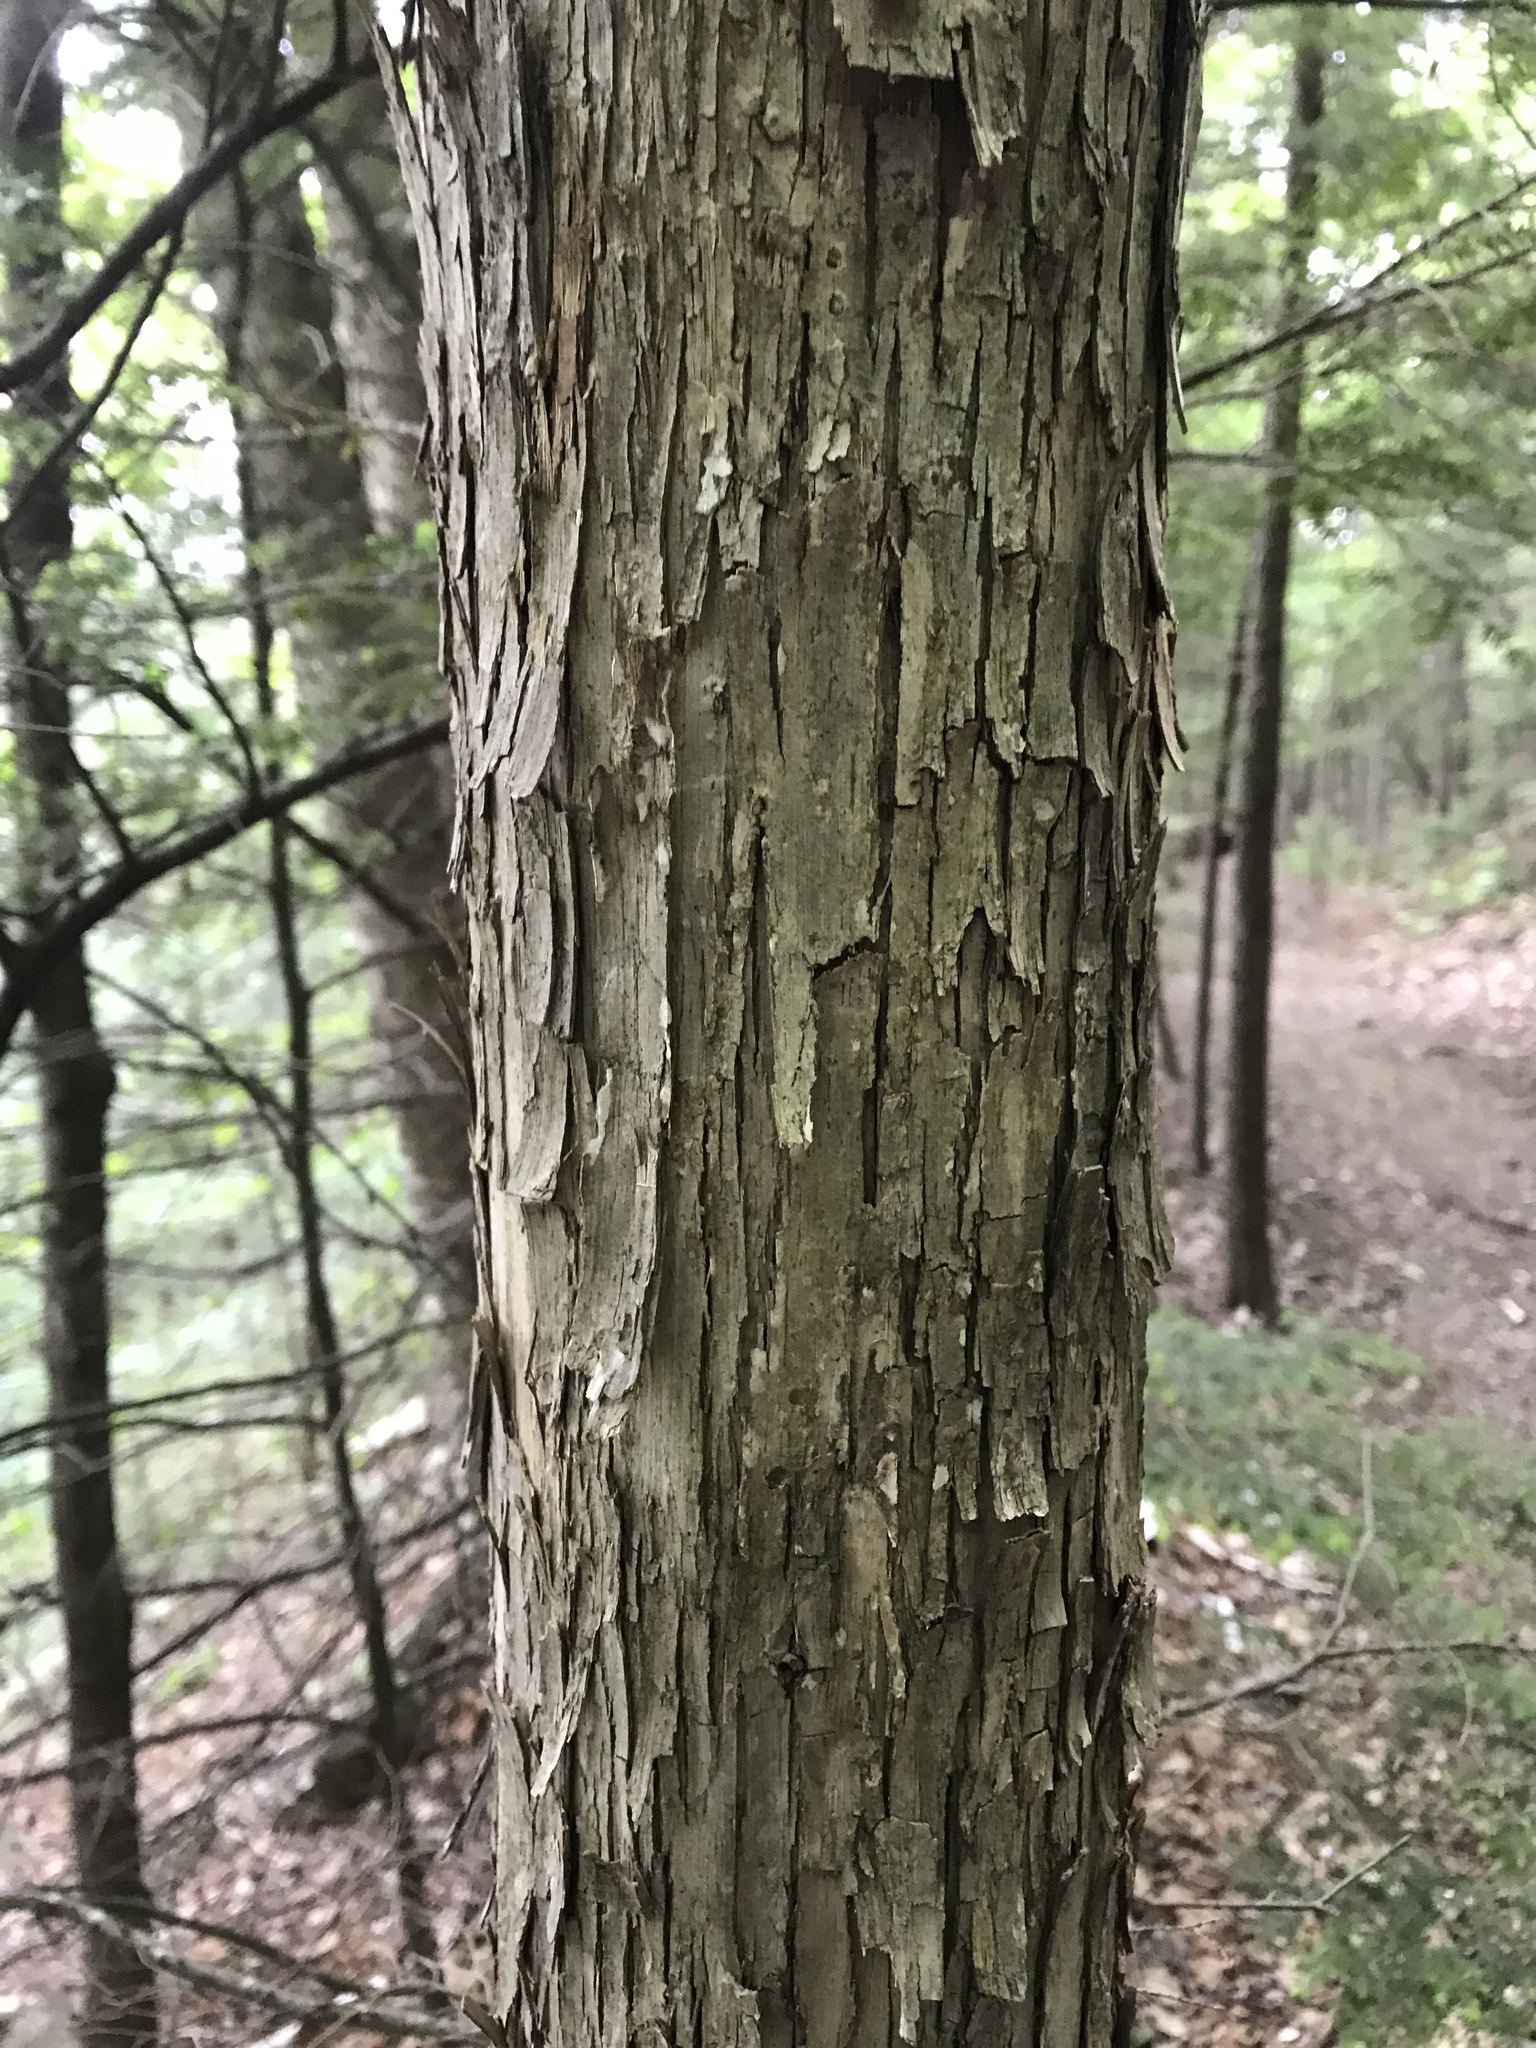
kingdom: Plantae
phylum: Tracheophyta
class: Magnoliopsida
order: Fagales
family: Betulaceae
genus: Ostrya
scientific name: Ostrya virginiana
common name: Ironwood
